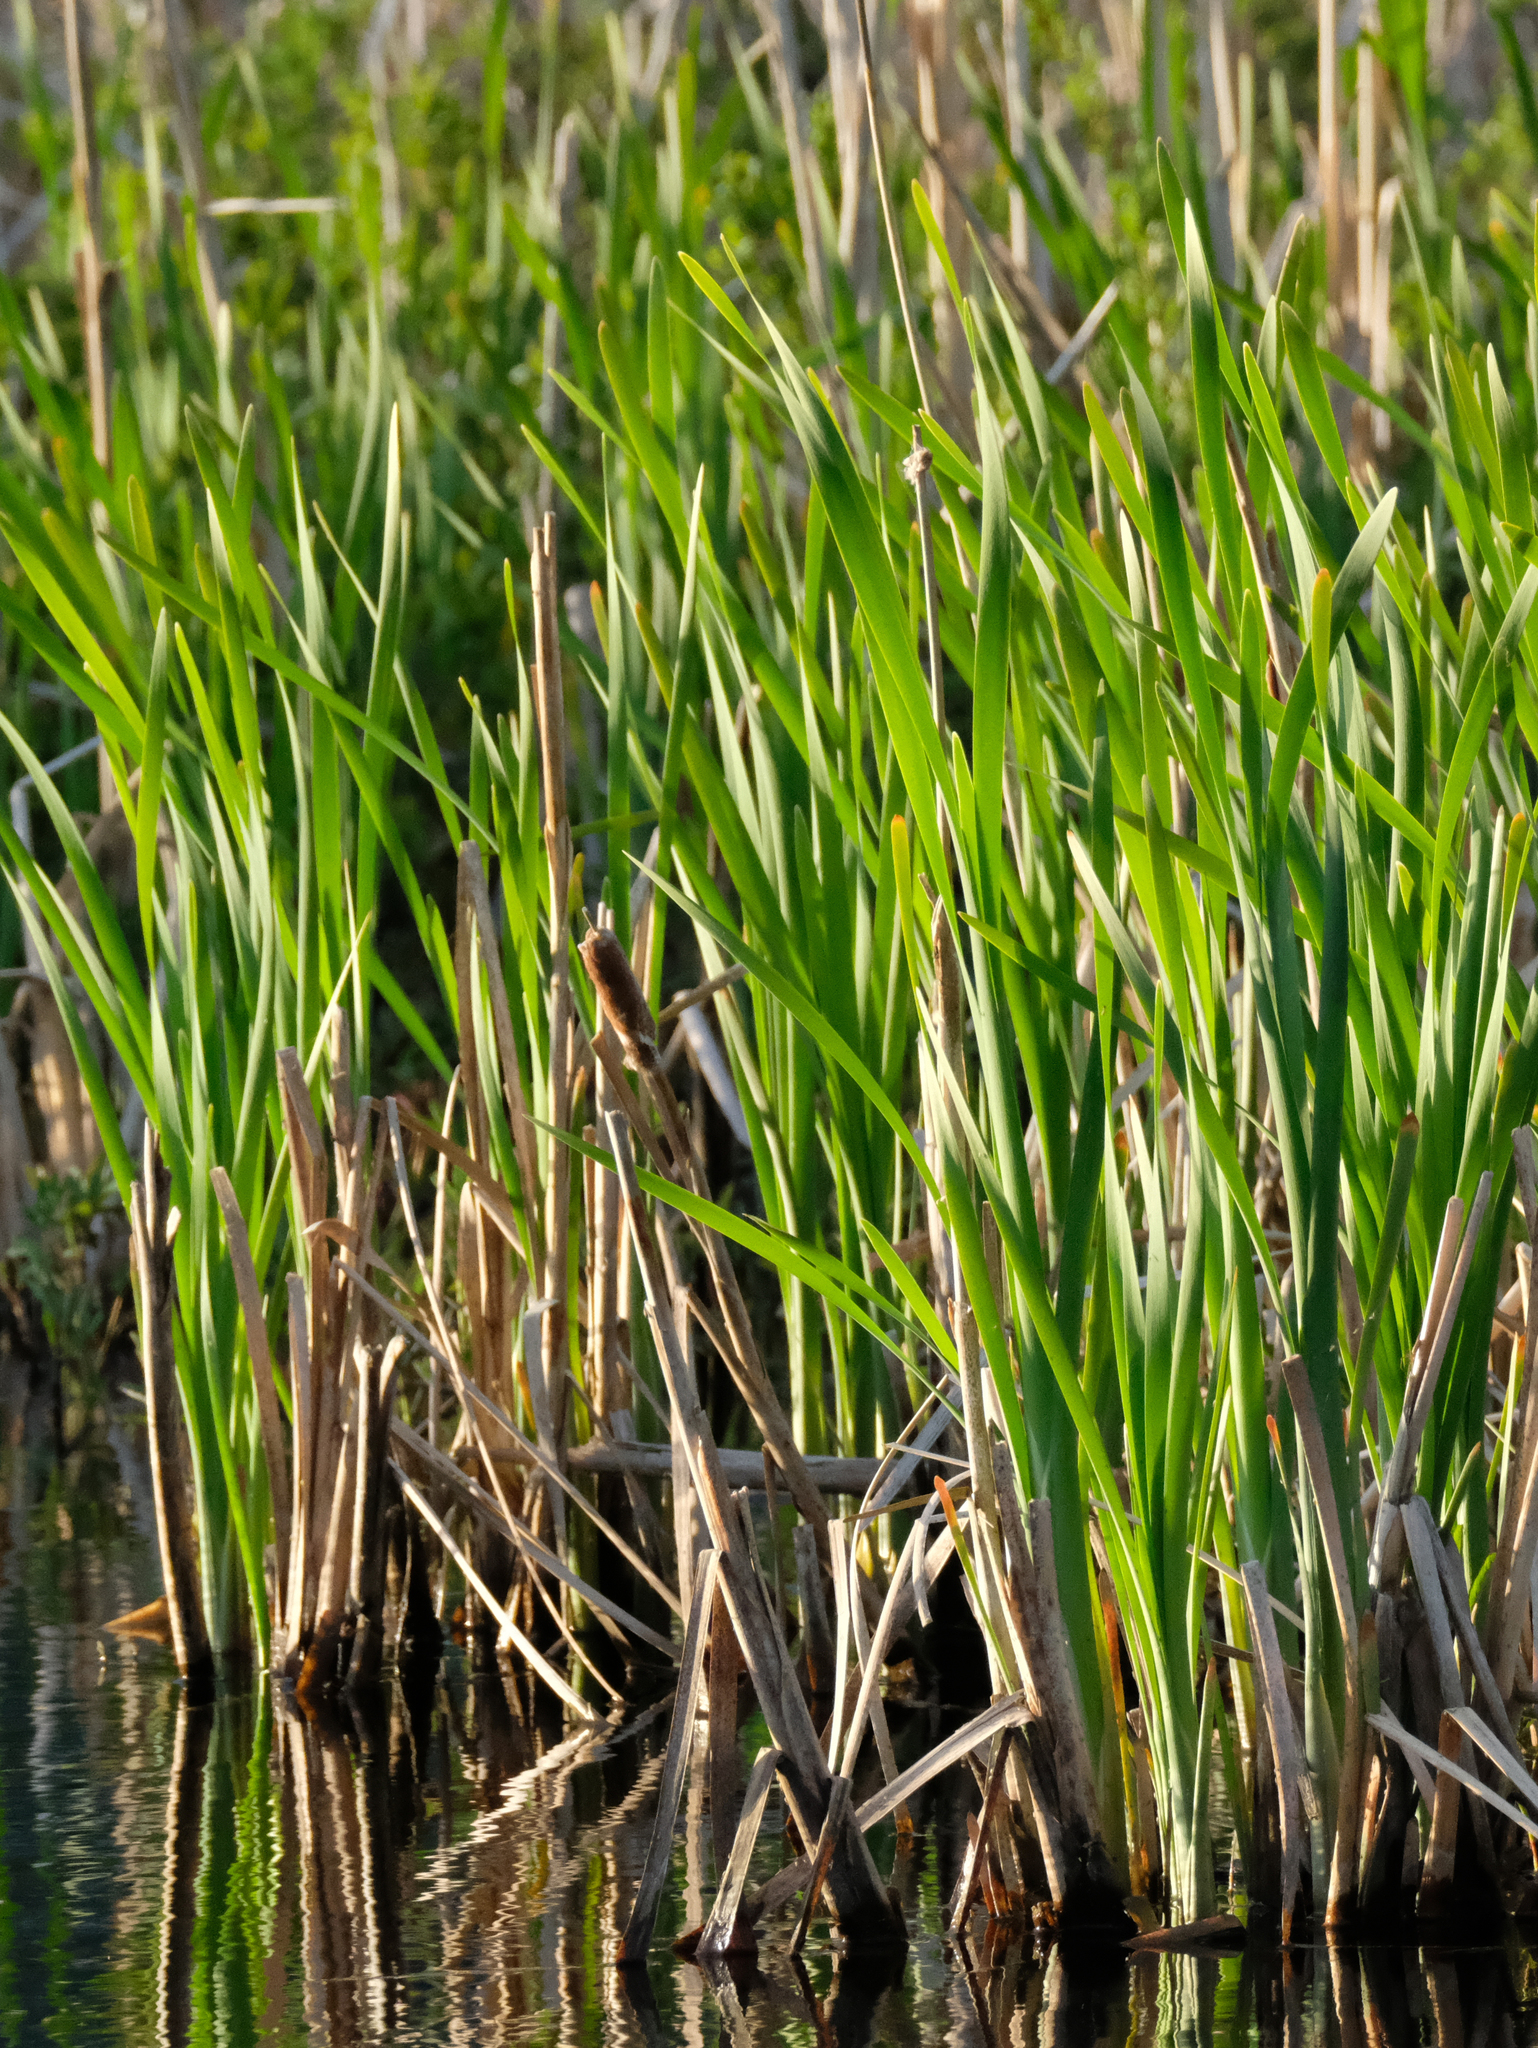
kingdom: Plantae
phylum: Tracheophyta
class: Liliopsida
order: Poales
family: Typhaceae
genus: Typha
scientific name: Typha latifolia
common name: Broadleaf cattail
